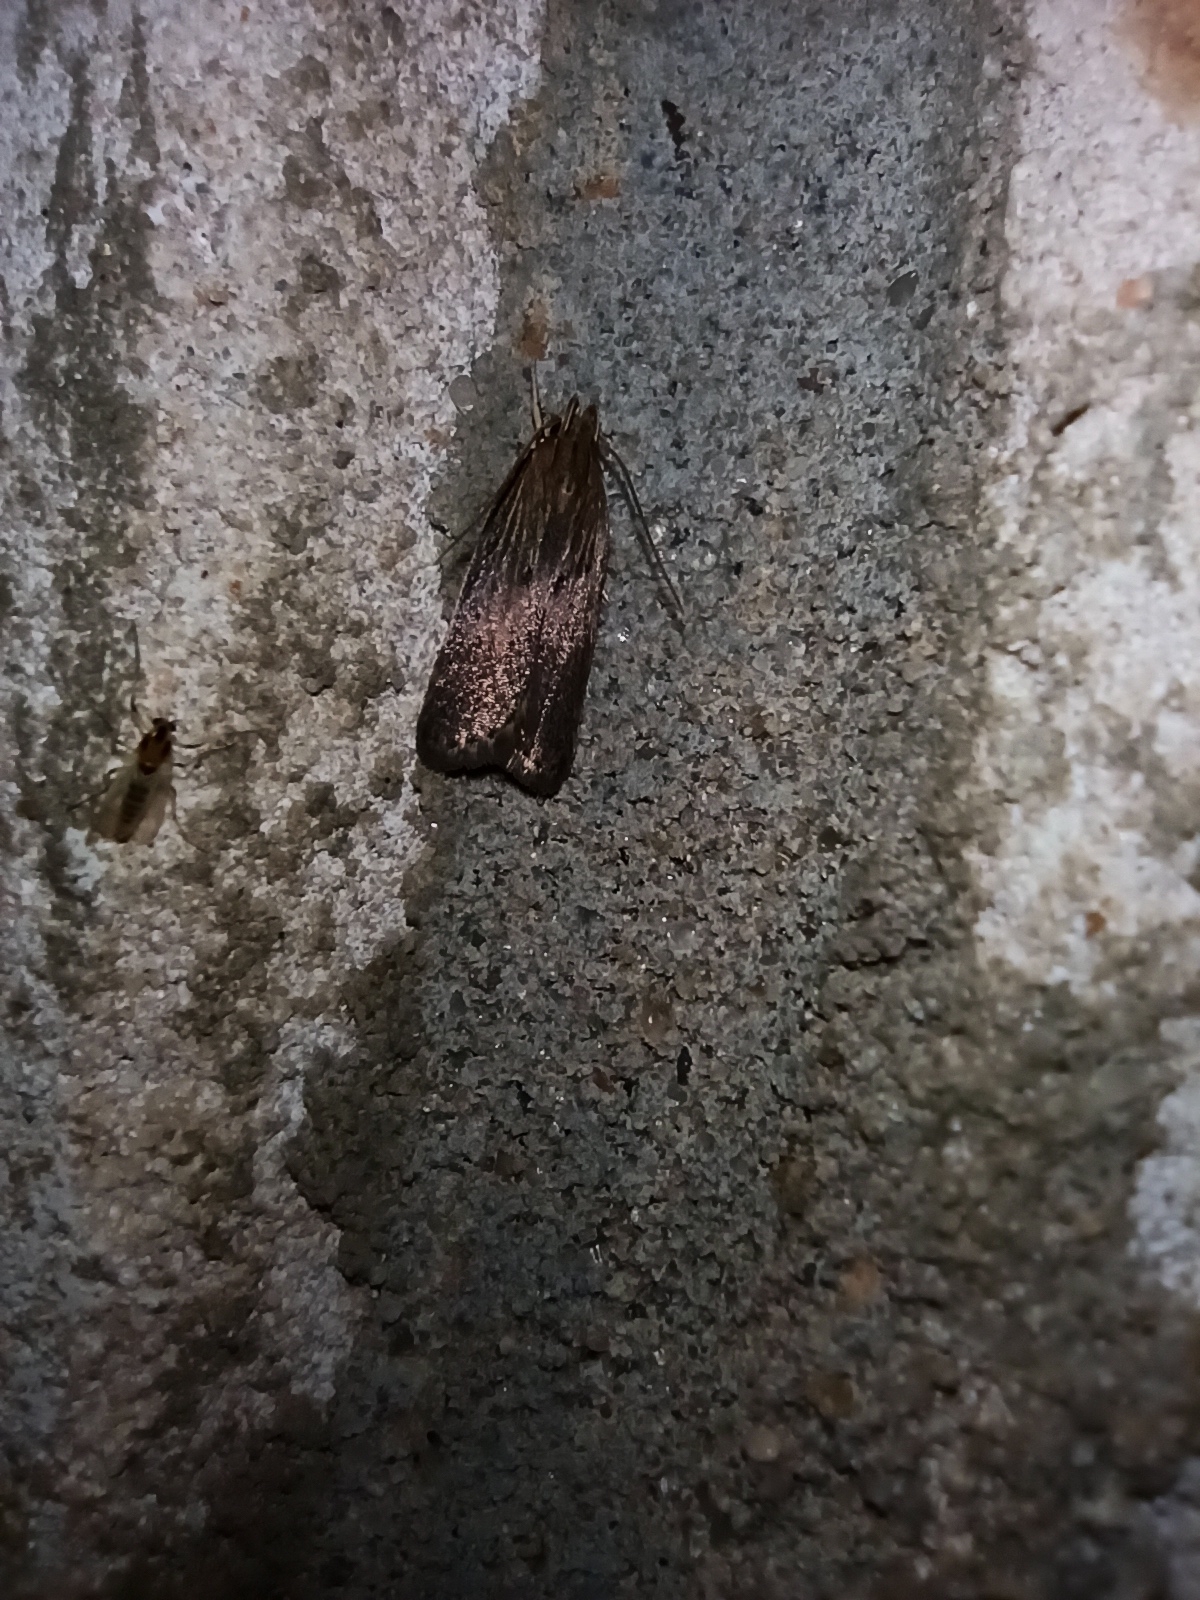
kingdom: Animalia
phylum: Arthropoda
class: Insecta
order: Lepidoptera
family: Gelechiidae
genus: Helcystogramma
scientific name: Helcystogramma arulensis
